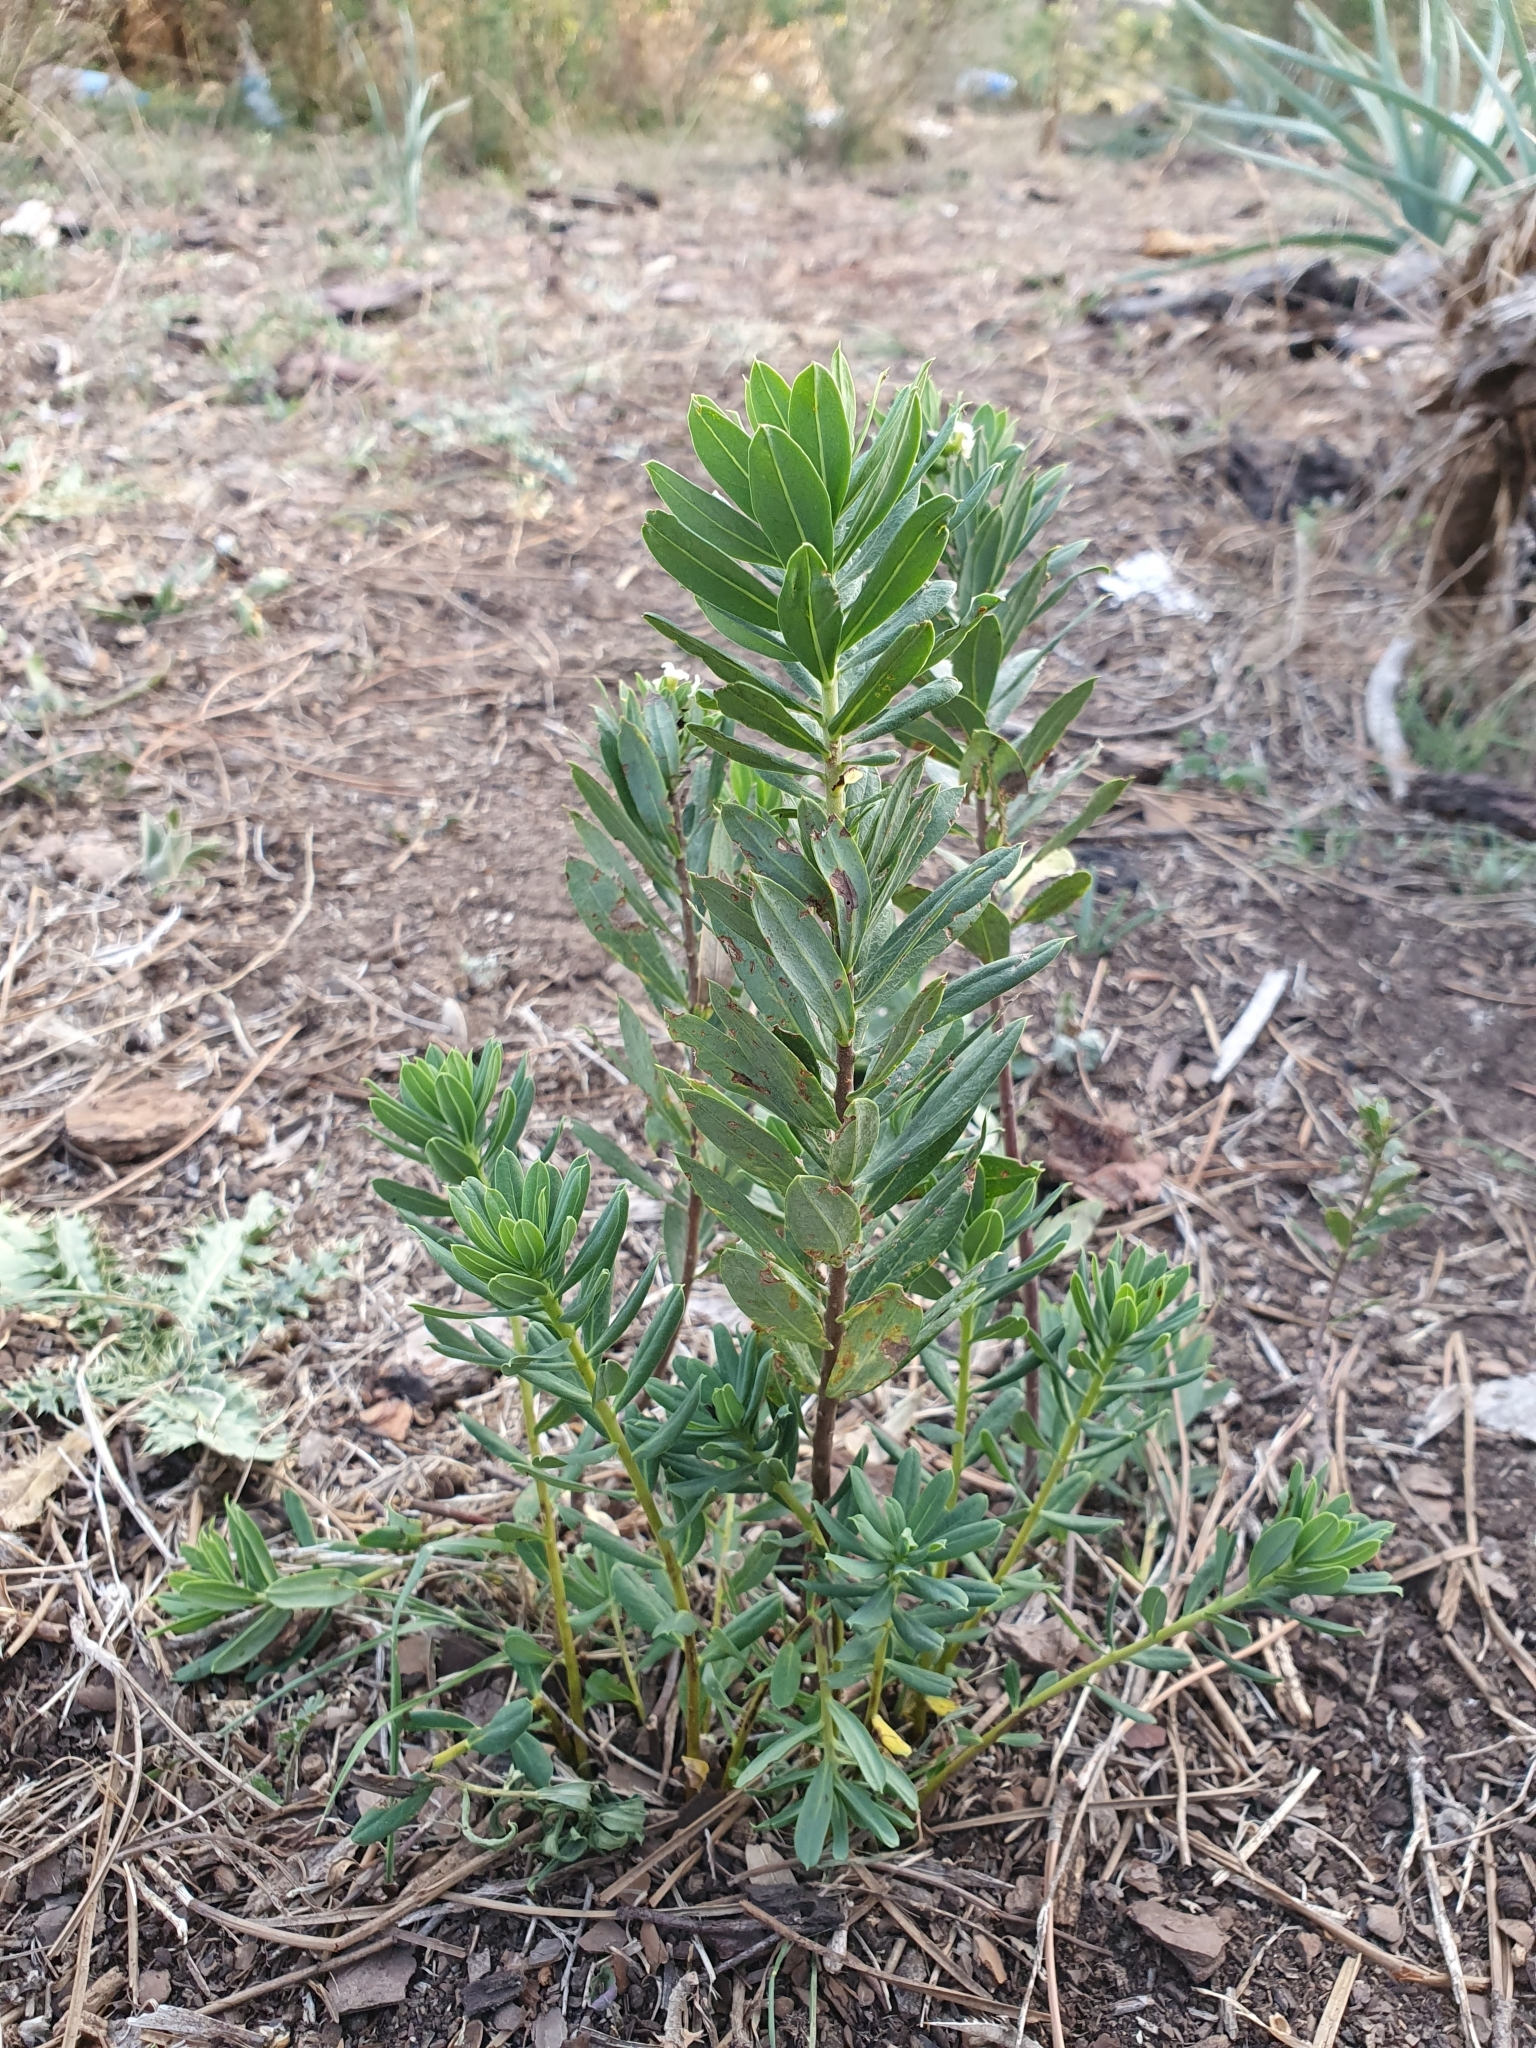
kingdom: Plantae
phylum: Tracheophyta
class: Magnoliopsida
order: Malvales
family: Thymelaeaceae
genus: Daphne
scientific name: Daphne gnidium
